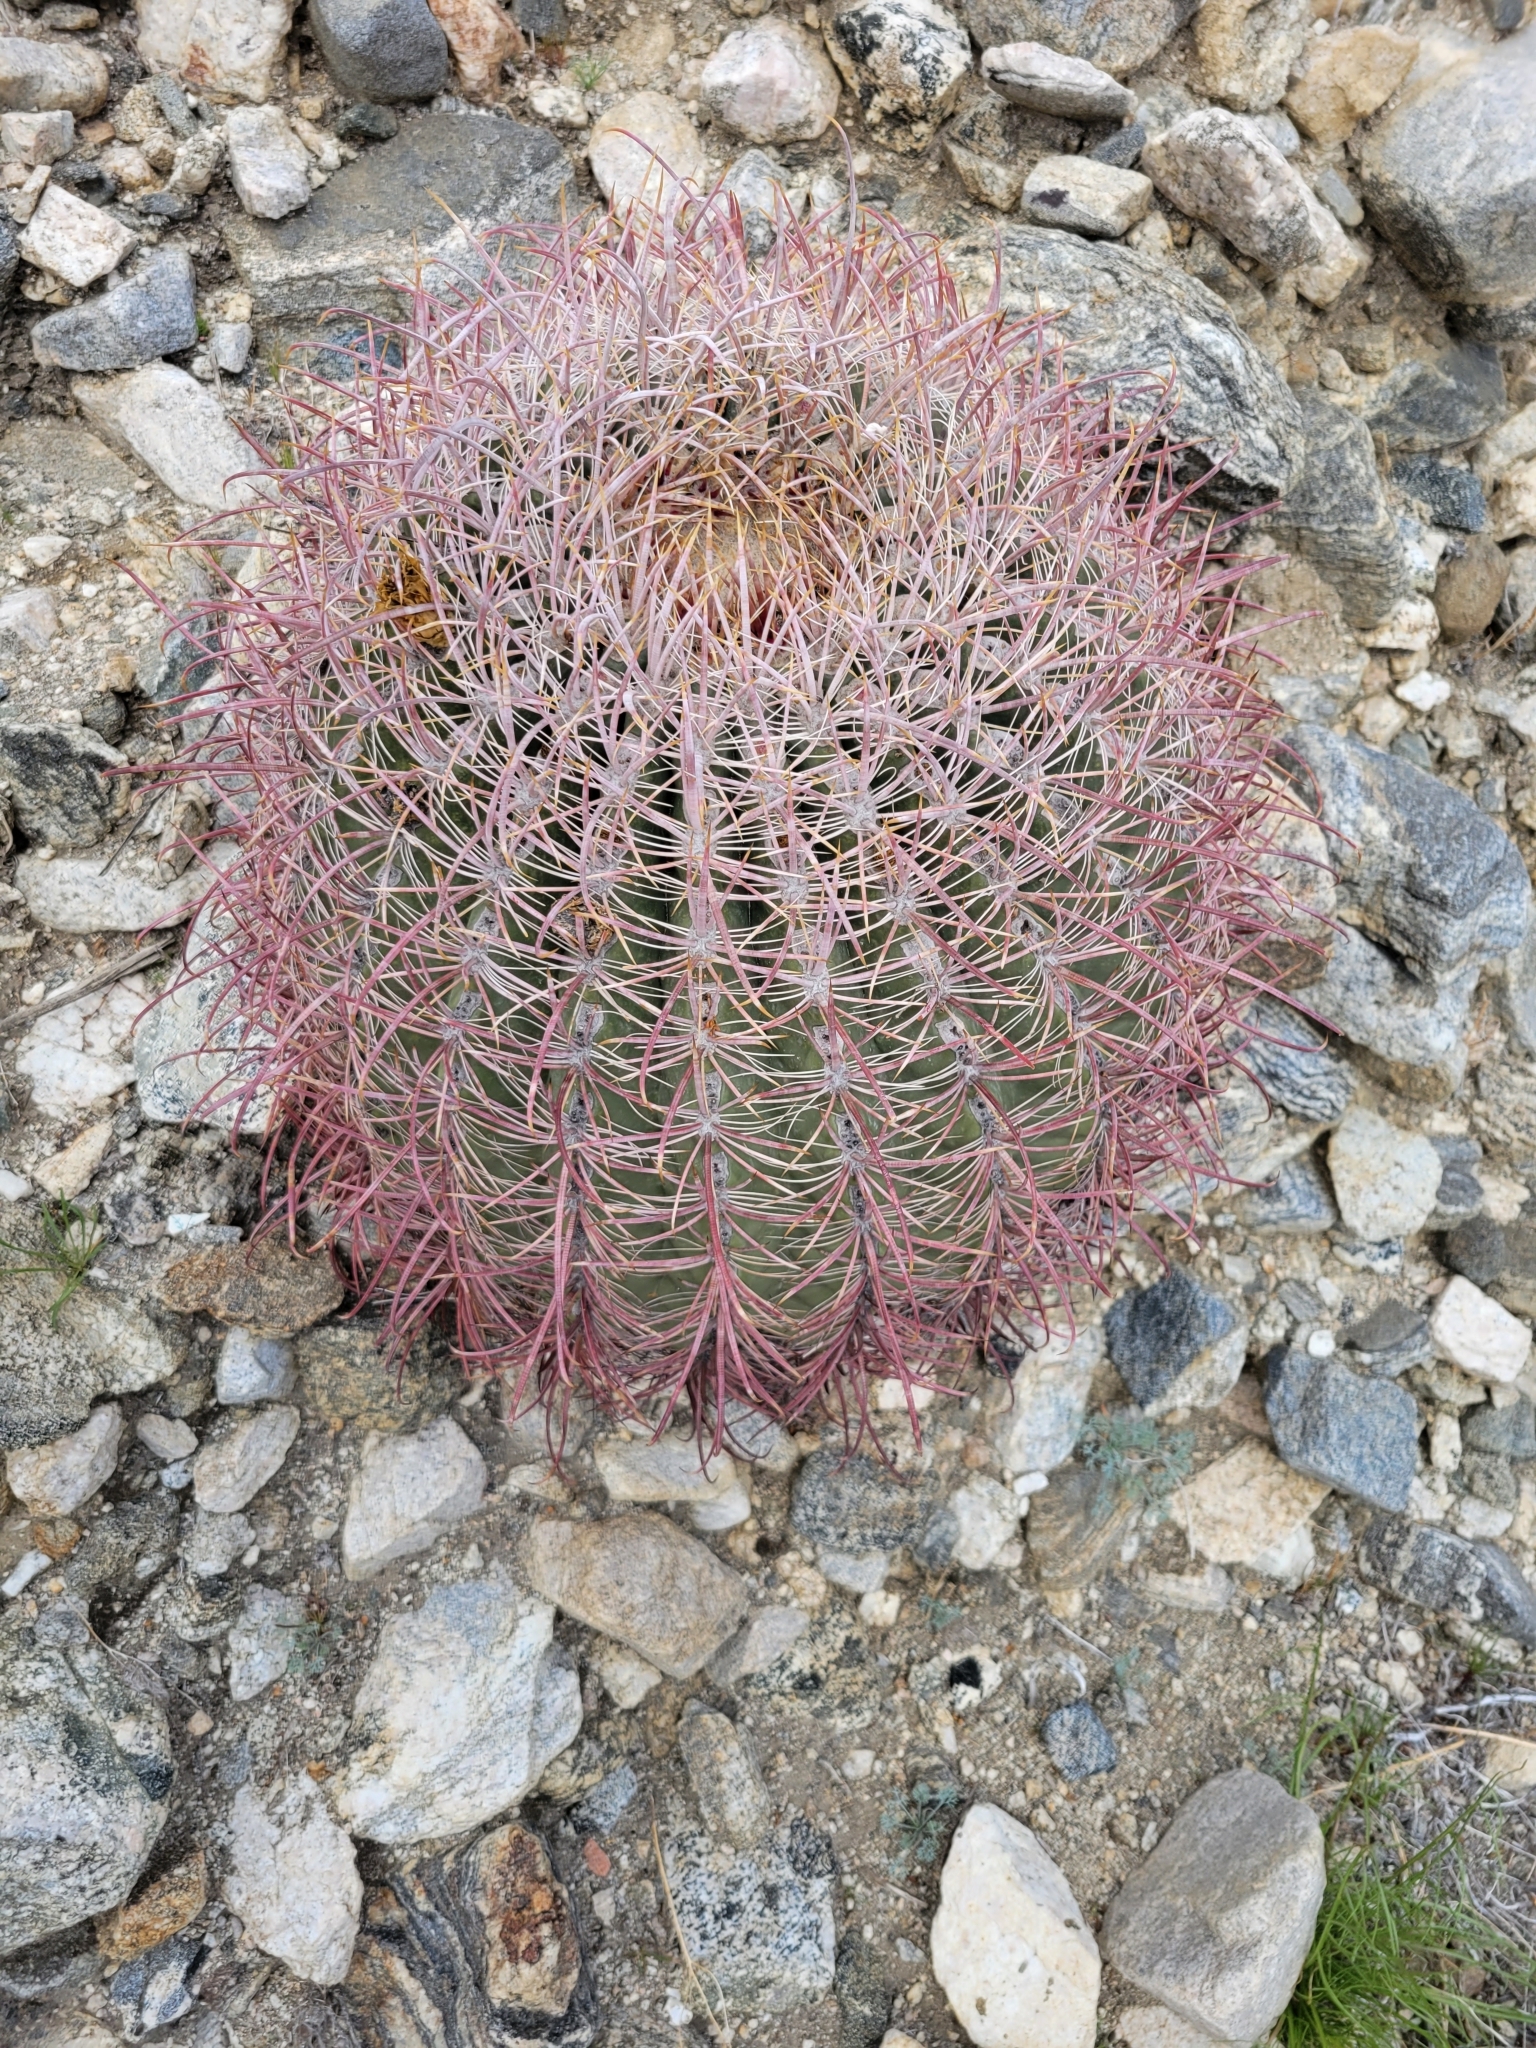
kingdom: Plantae
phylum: Tracheophyta
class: Magnoliopsida
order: Caryophyllales
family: Cactaceae
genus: Ferocactus
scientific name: Ferocactus cylindraceus
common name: California barrel cactus
